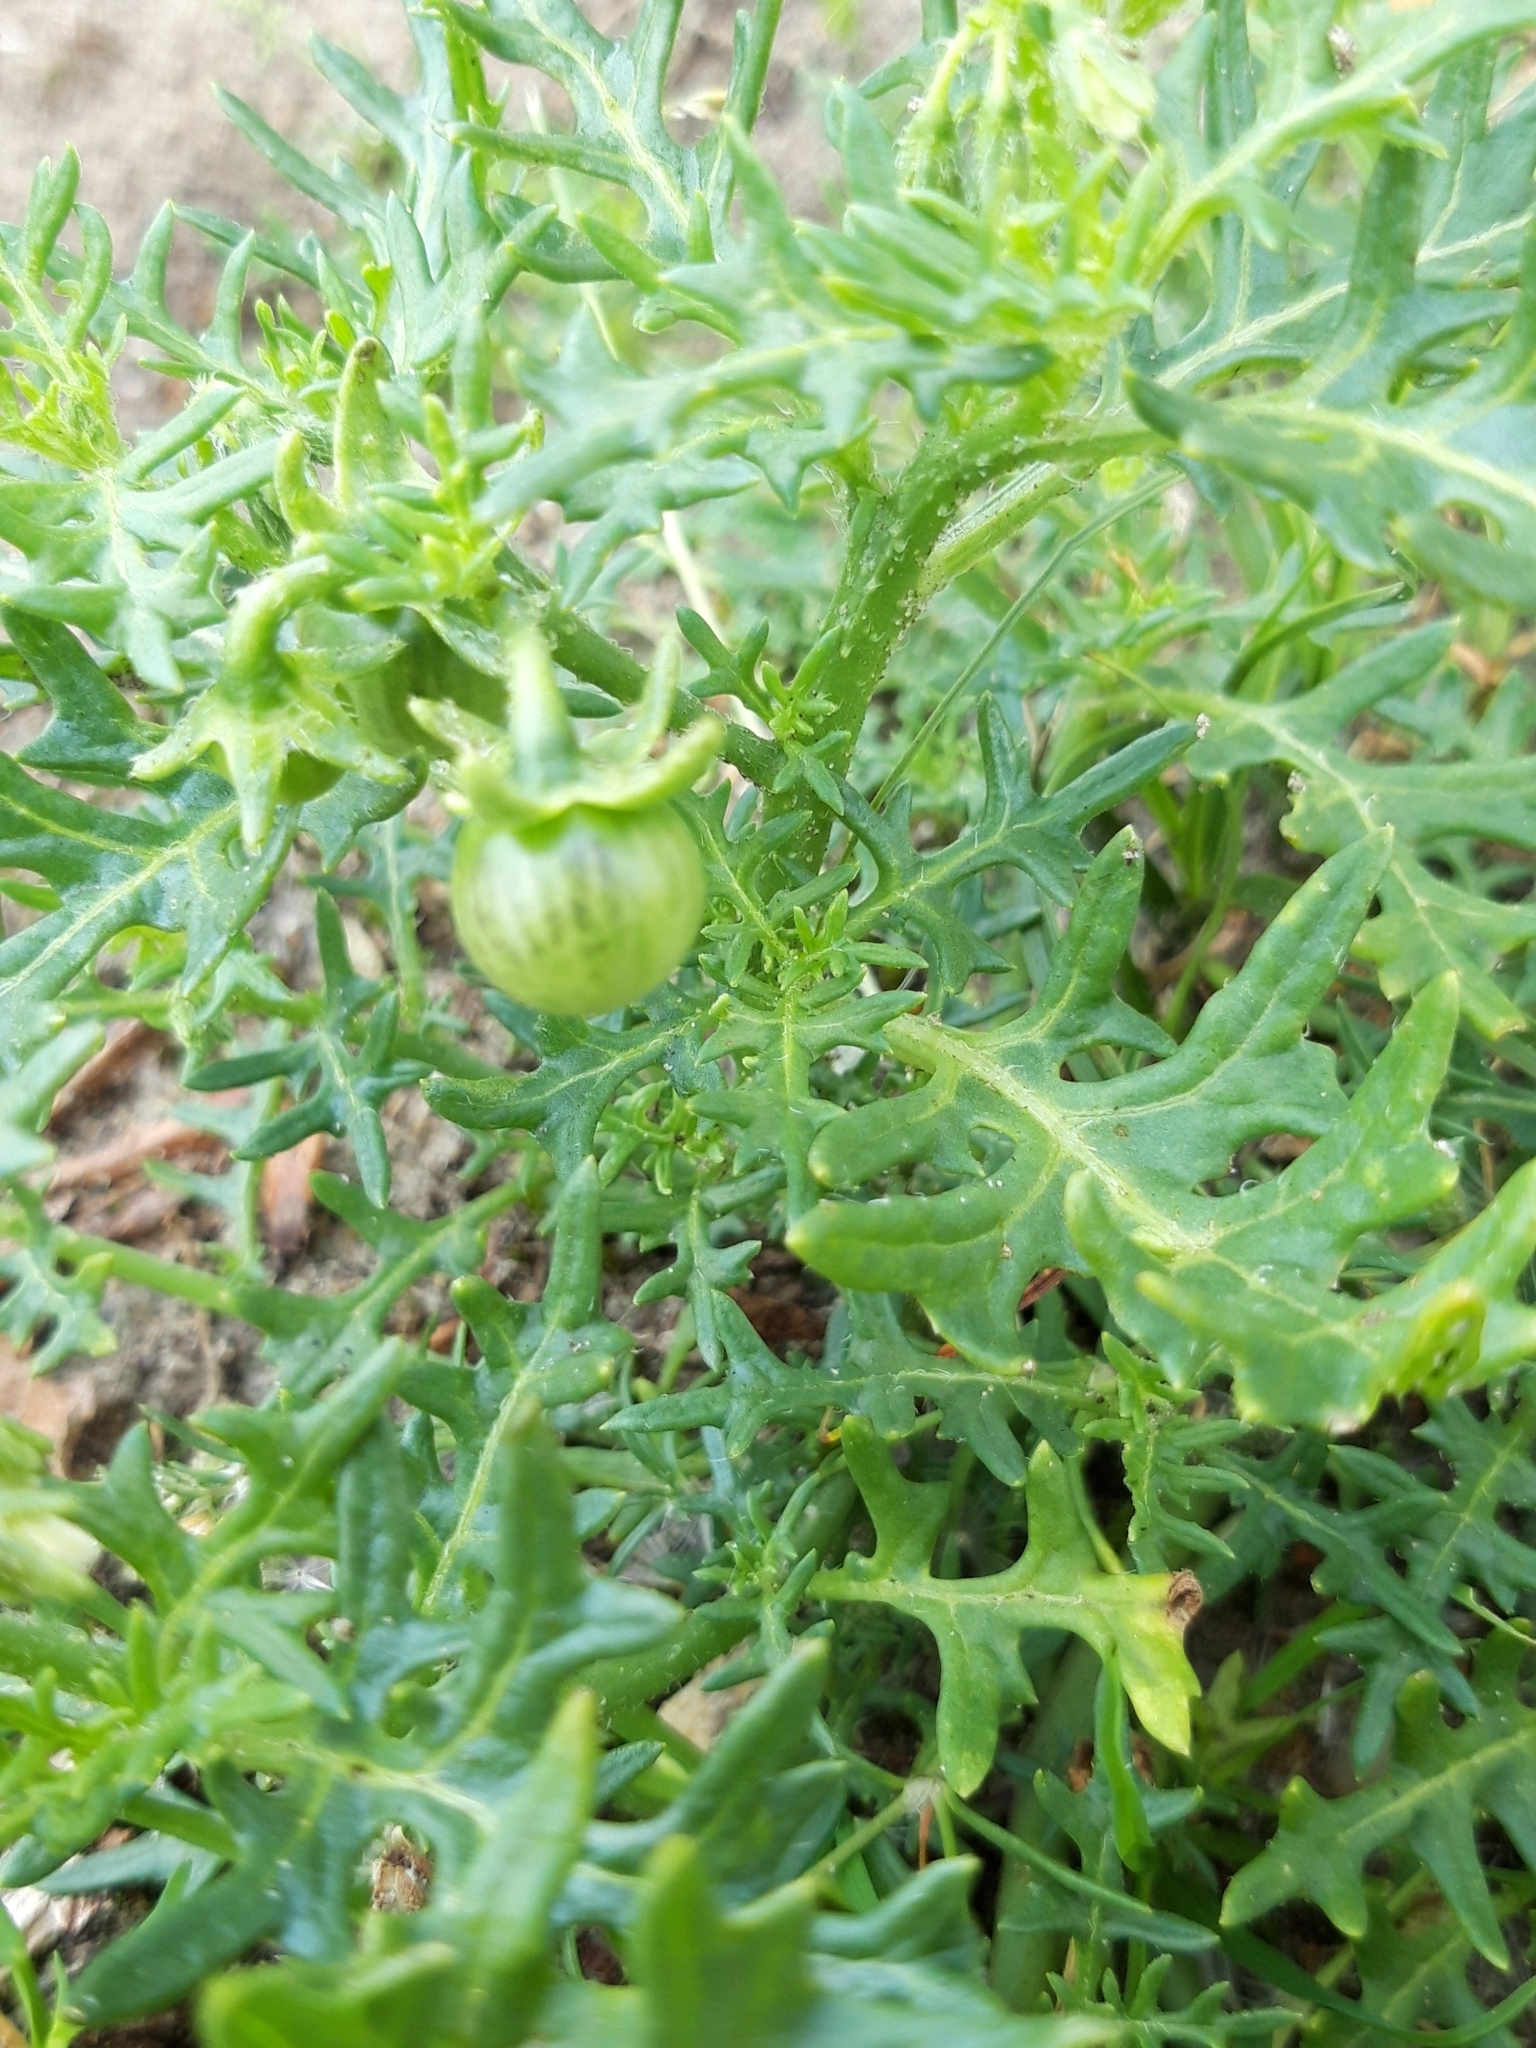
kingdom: Plantae
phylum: Tracheophyta
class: Magnoliopsida
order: Solanales
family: Solanaceae
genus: Solanum
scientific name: Solanum triflorum
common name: Small nightshade
